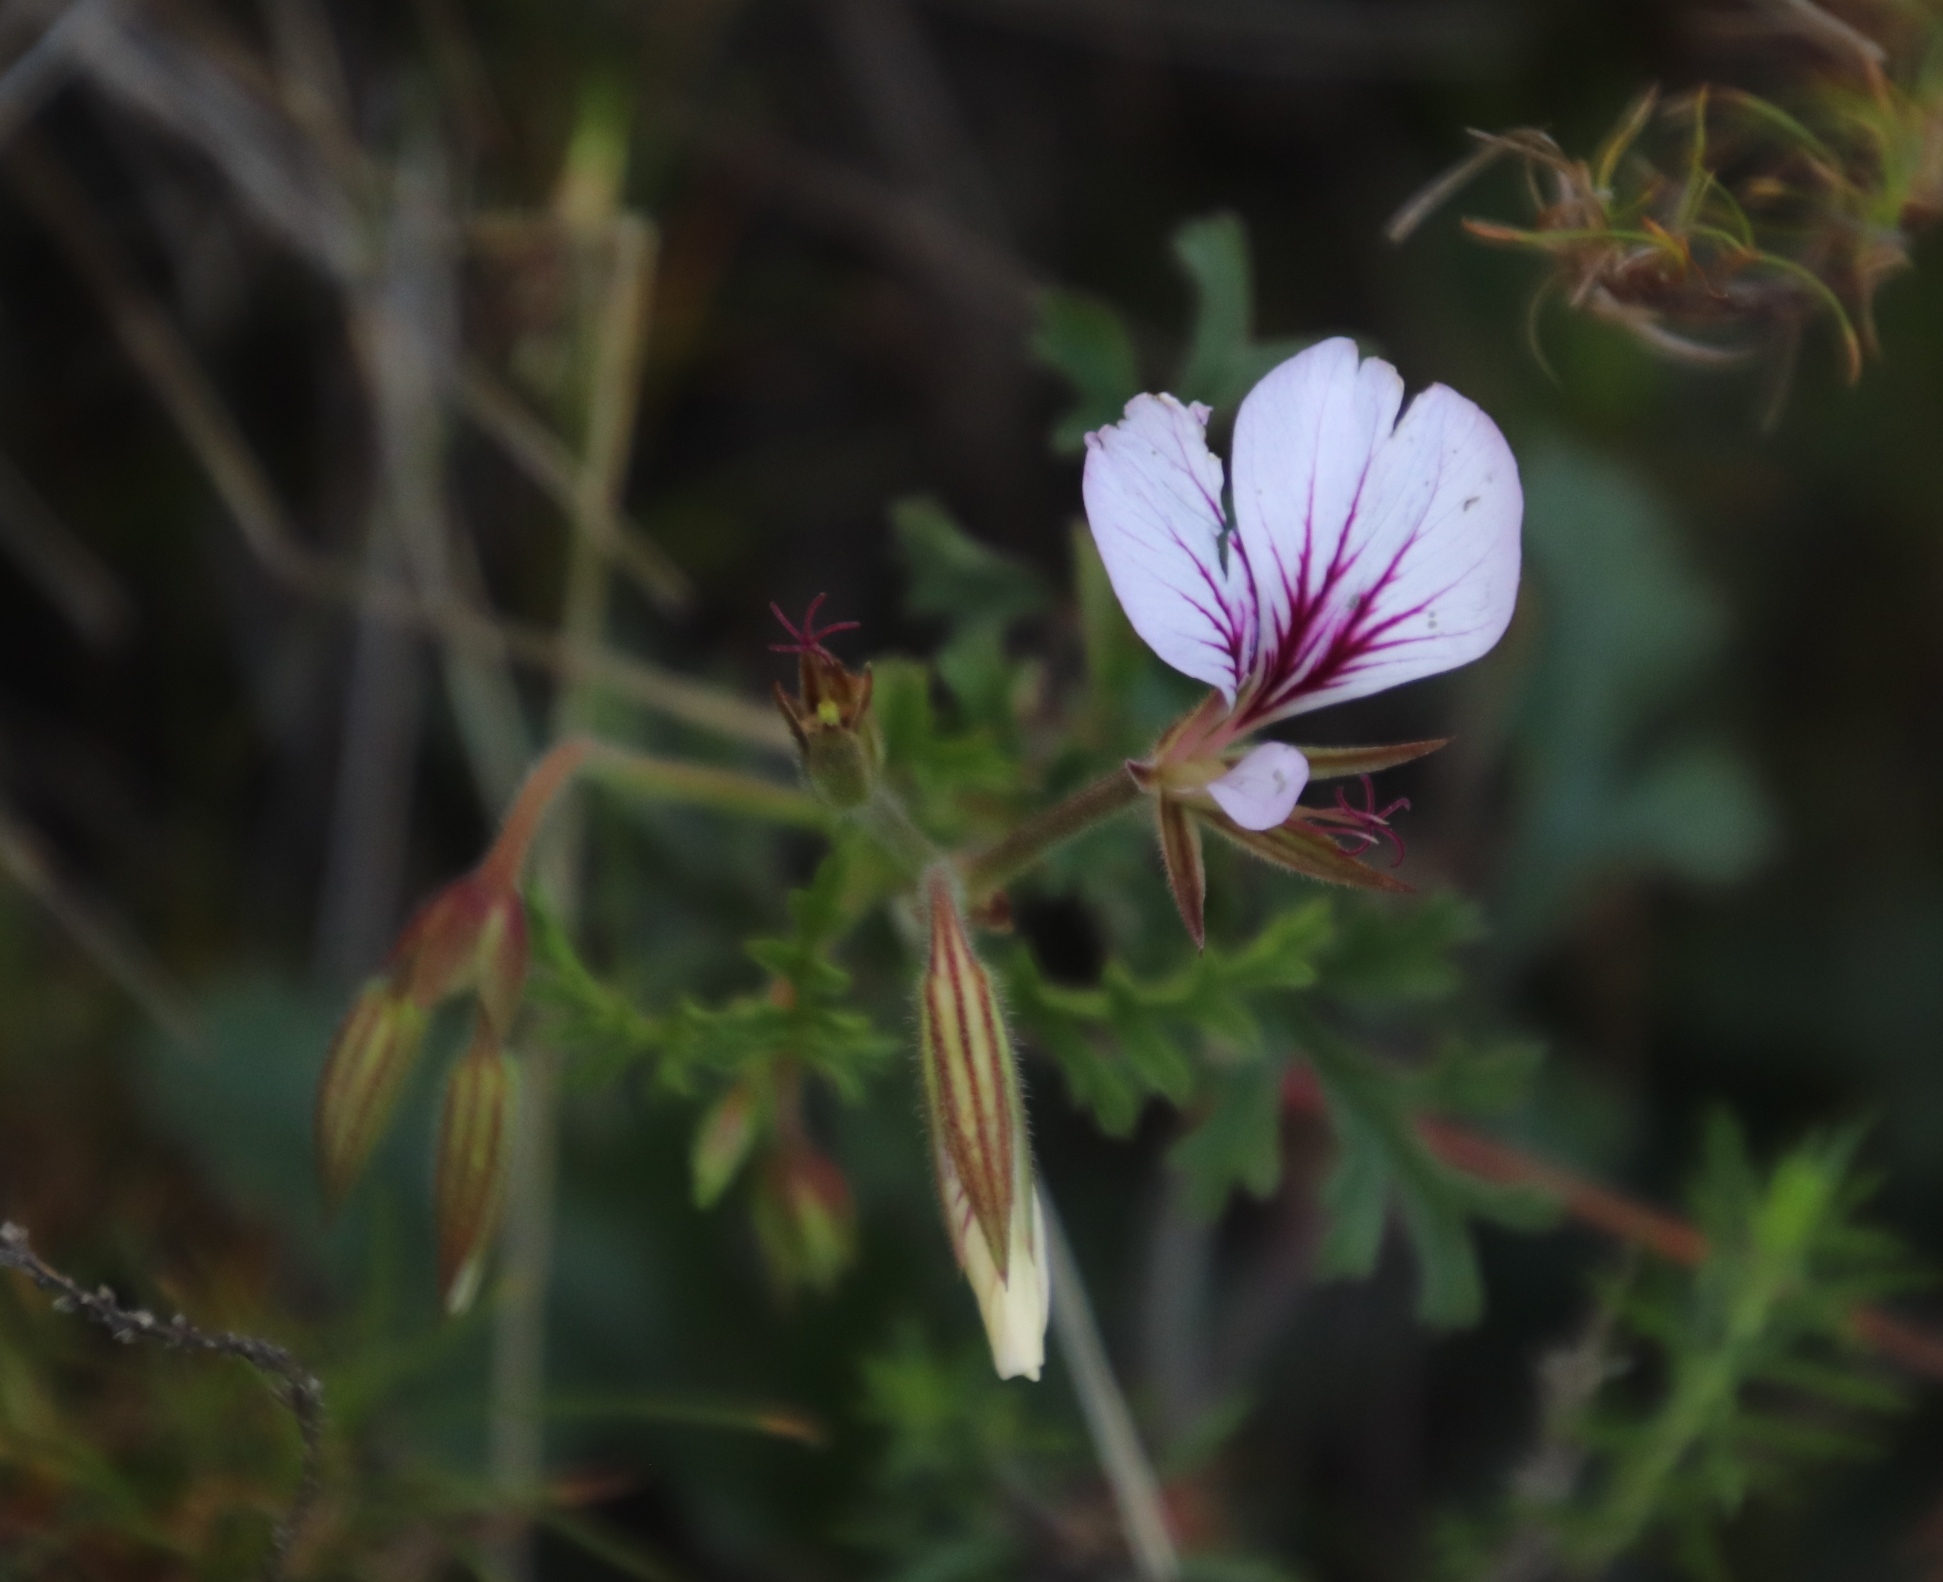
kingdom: Plantae
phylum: Tracheophyta
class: Magnoliopsida
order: Geraniales
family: Geraniaceae
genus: Pelargonium
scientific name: Pelargonium myrrhifolium
